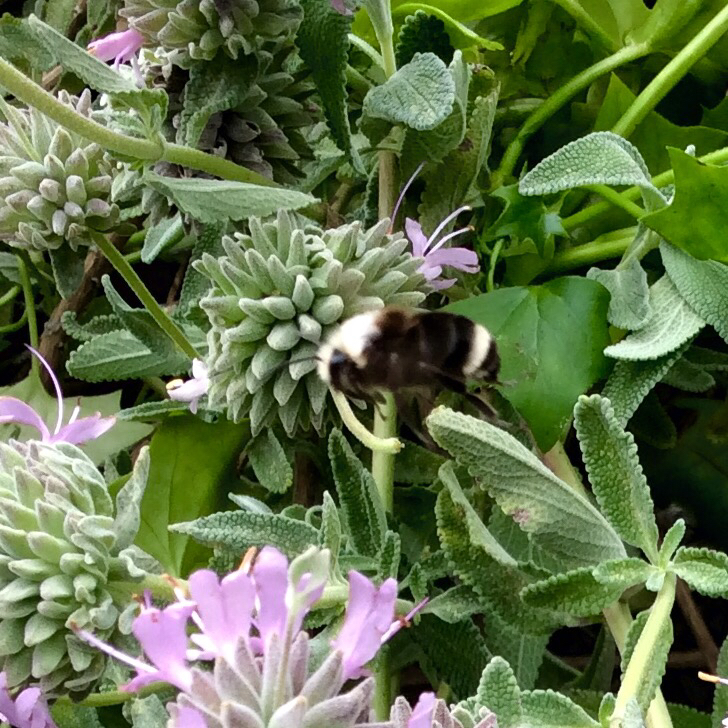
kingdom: Animalia
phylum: Arthropoda
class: Insecta
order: Hymenoptera
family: Apidae
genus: Pyrobombus
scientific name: Pyrobombus
